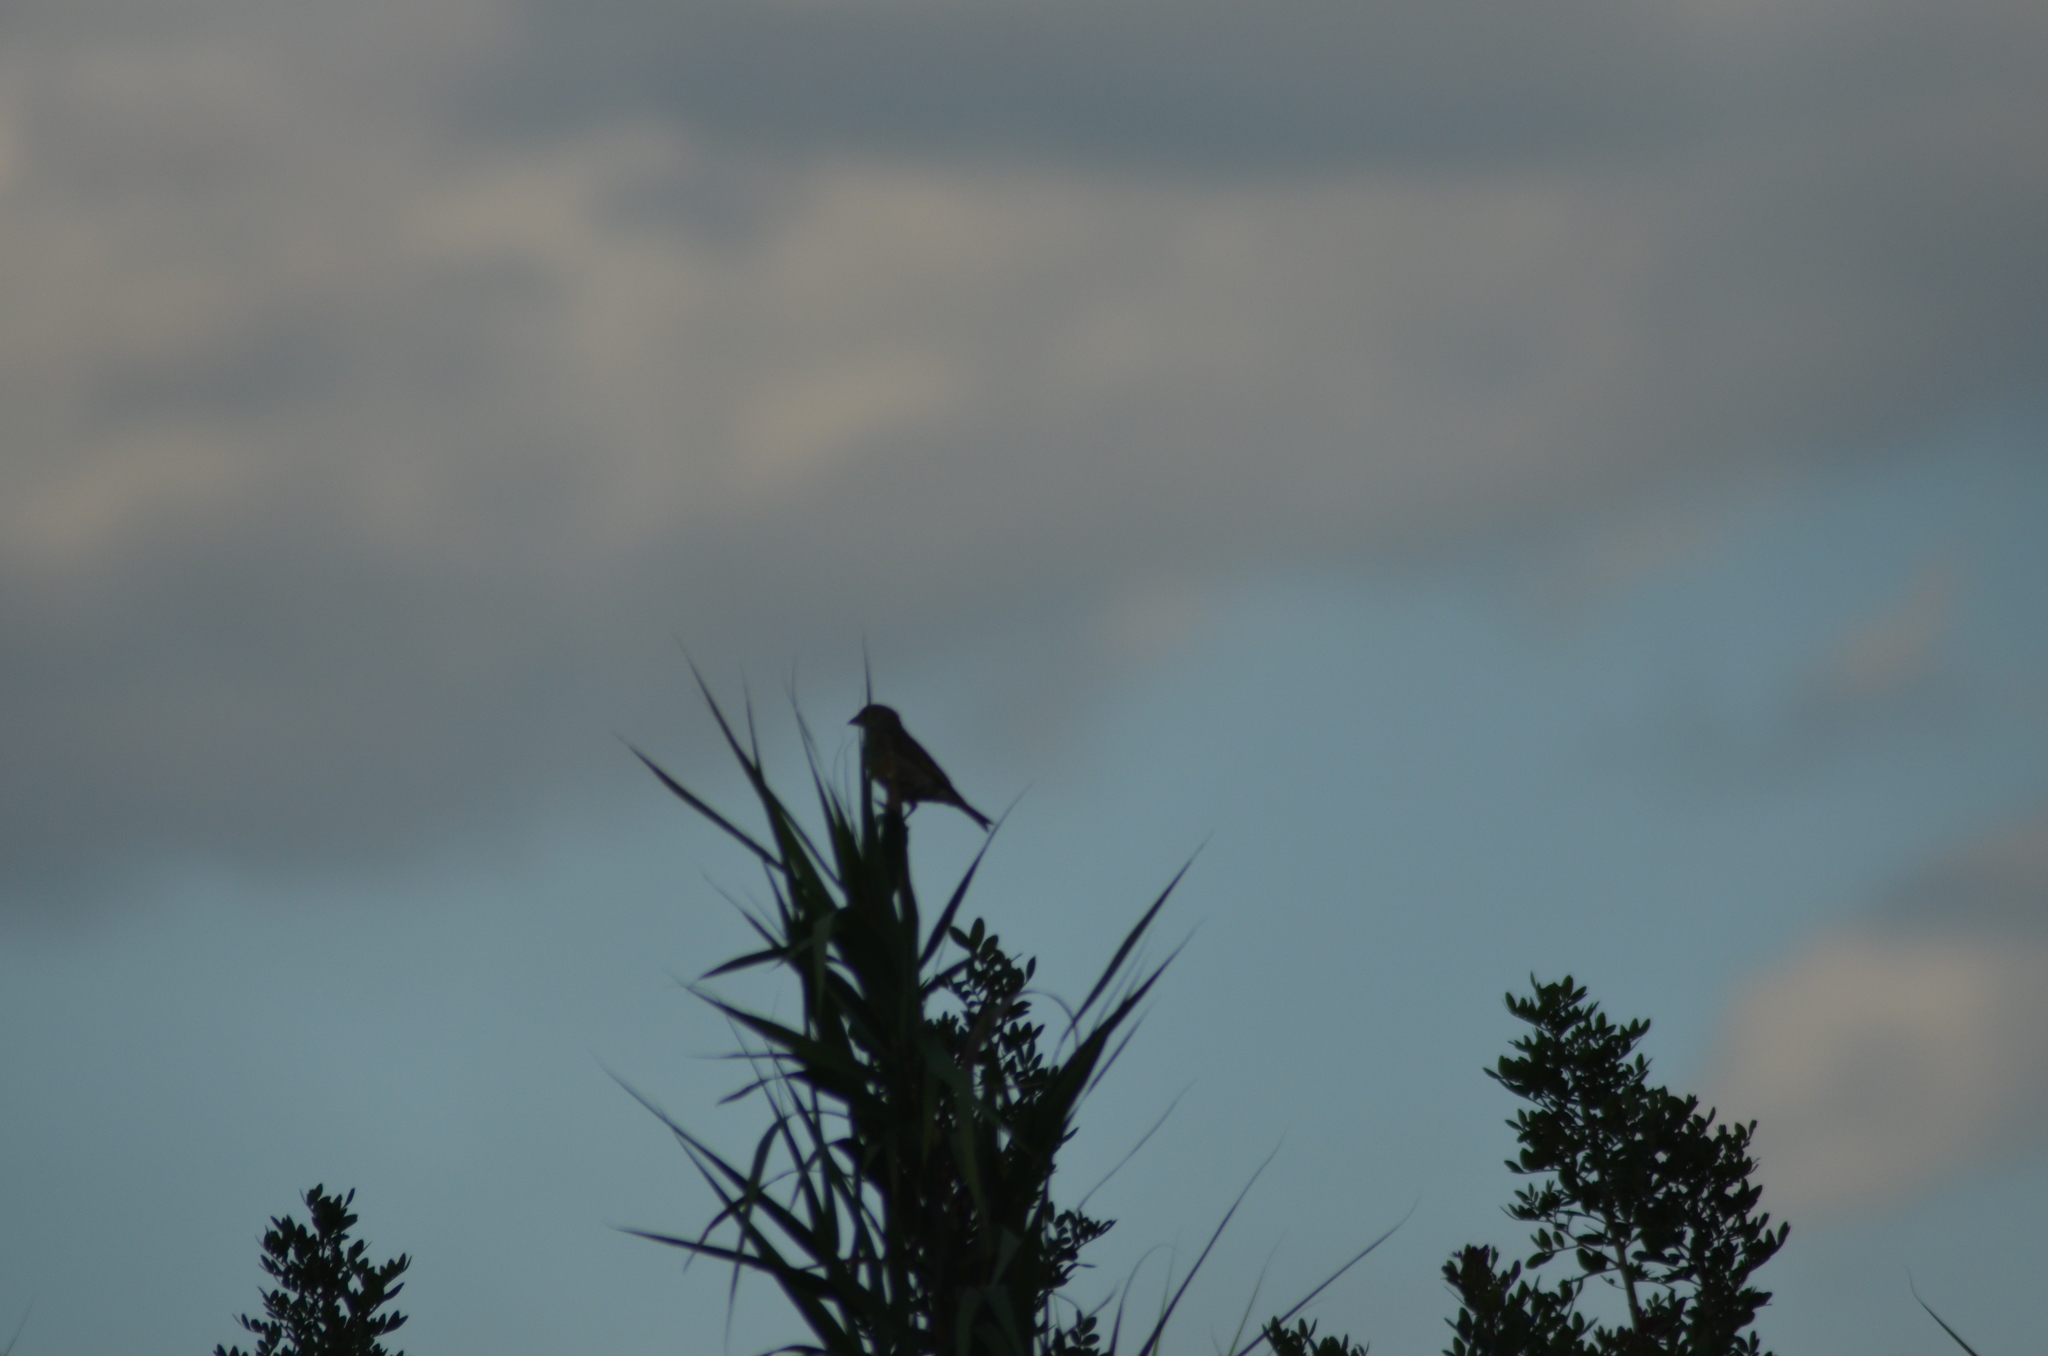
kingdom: Plantae
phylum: Tracheophyta
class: Liliopsida
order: Poales
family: Poaceae
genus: Chloris
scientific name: Chloris chloris
